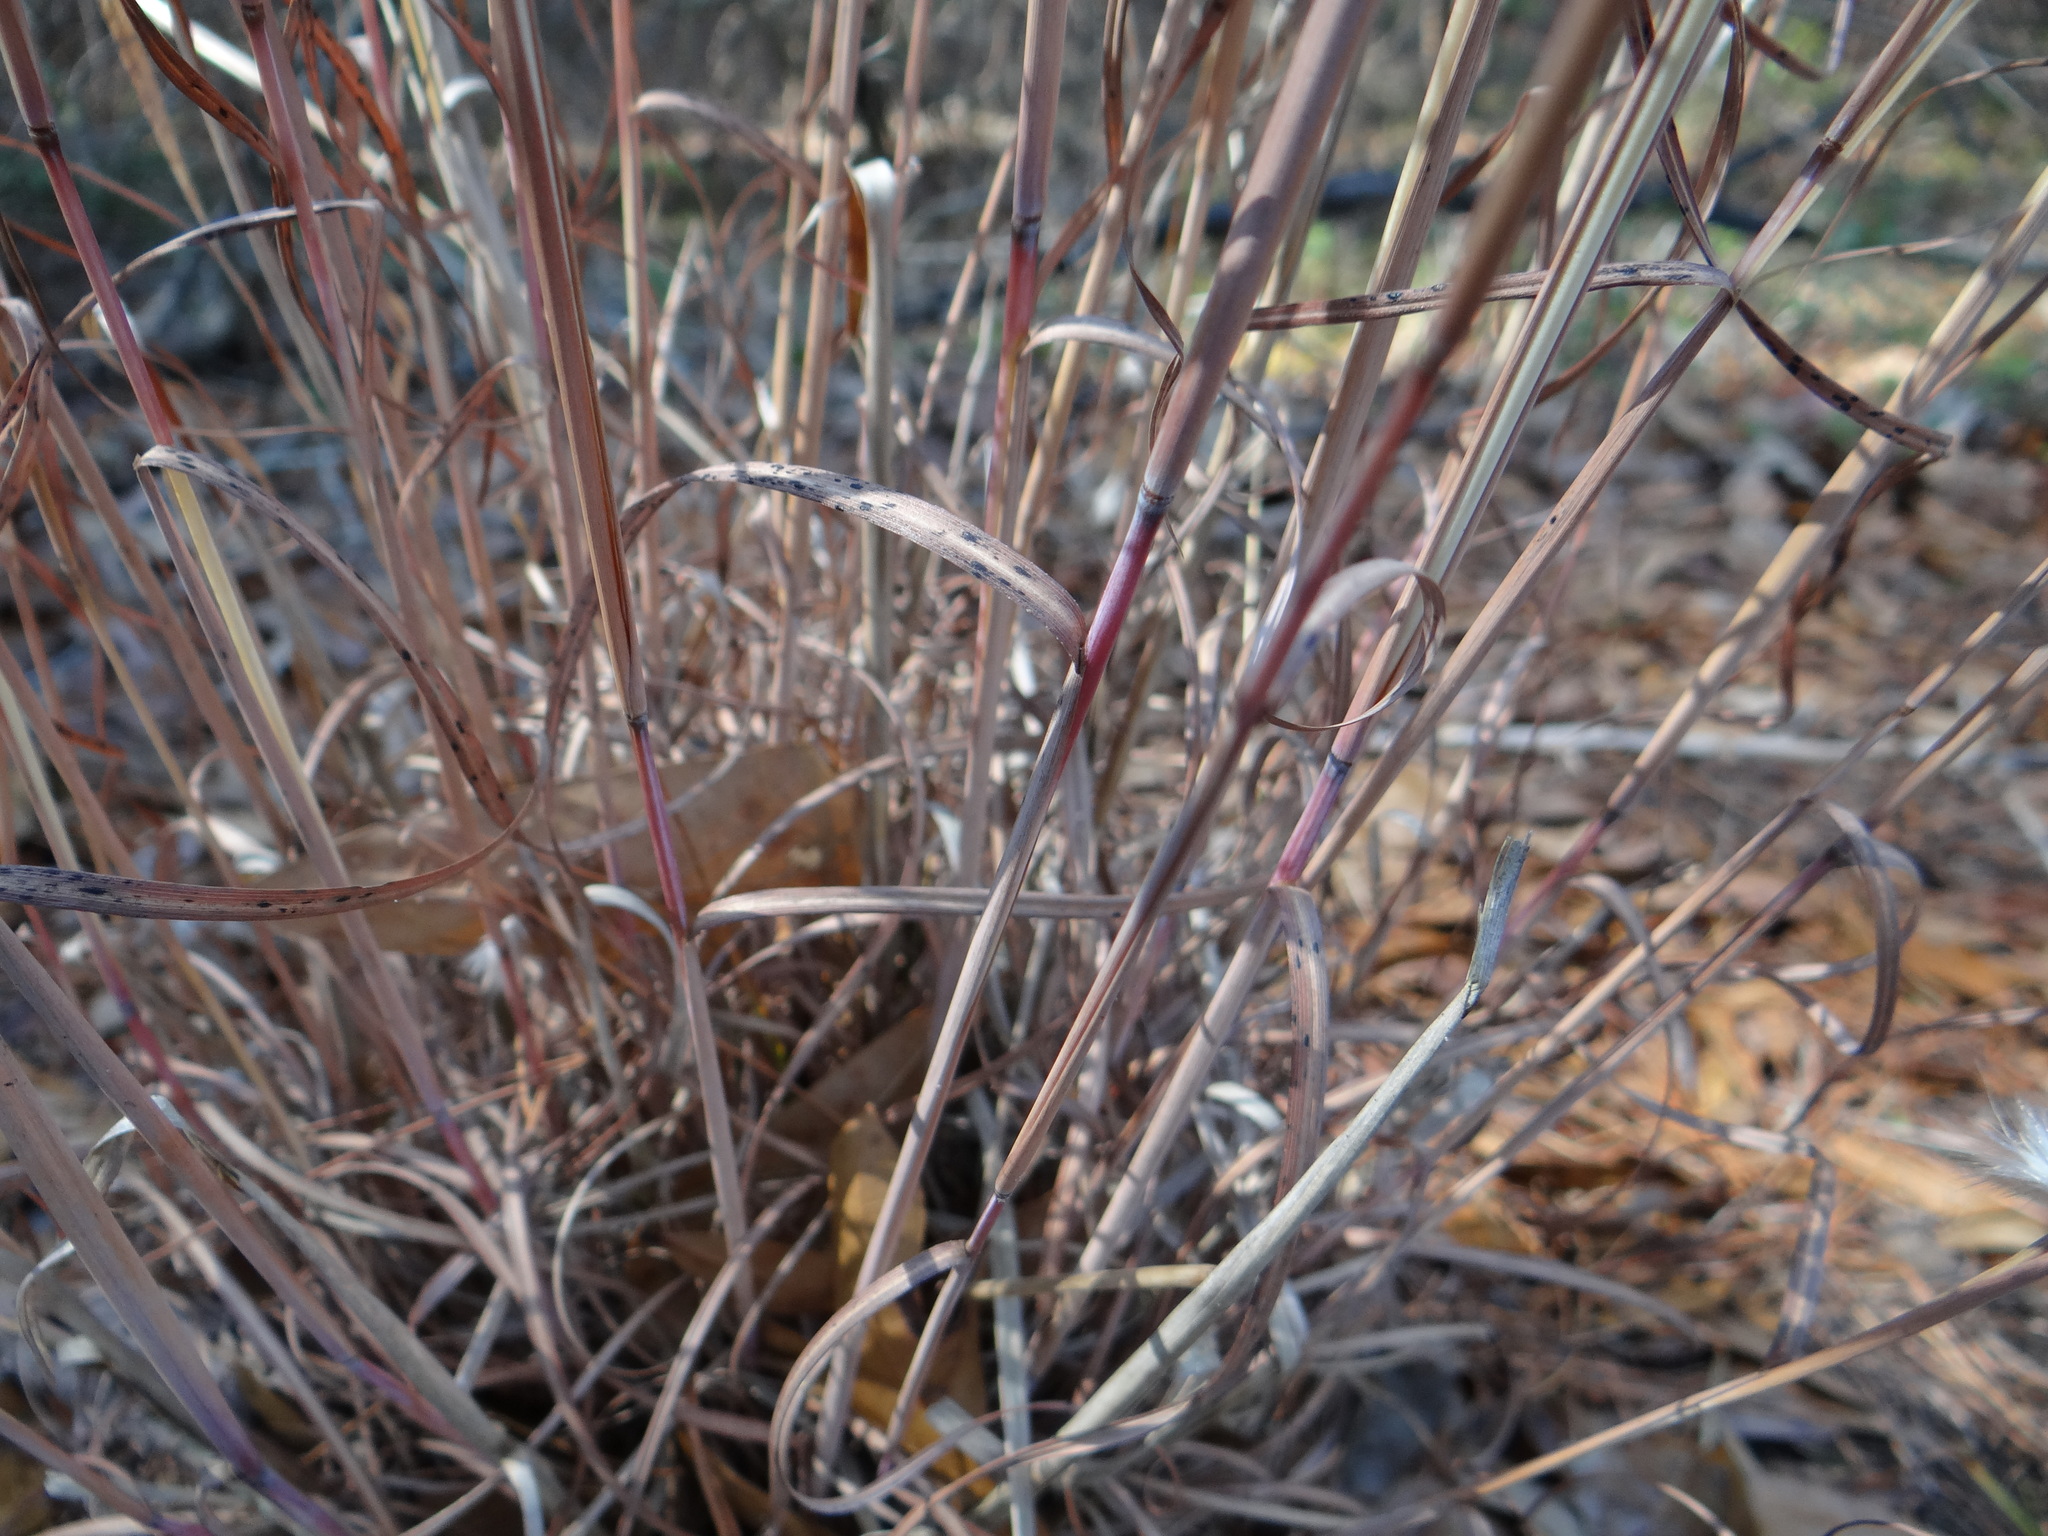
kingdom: Plantae
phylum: Tracheophyta
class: Liliopsida
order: Poales
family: Poaceae
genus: Andropogon
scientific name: Andropogon ternarius
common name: Split bluestem
